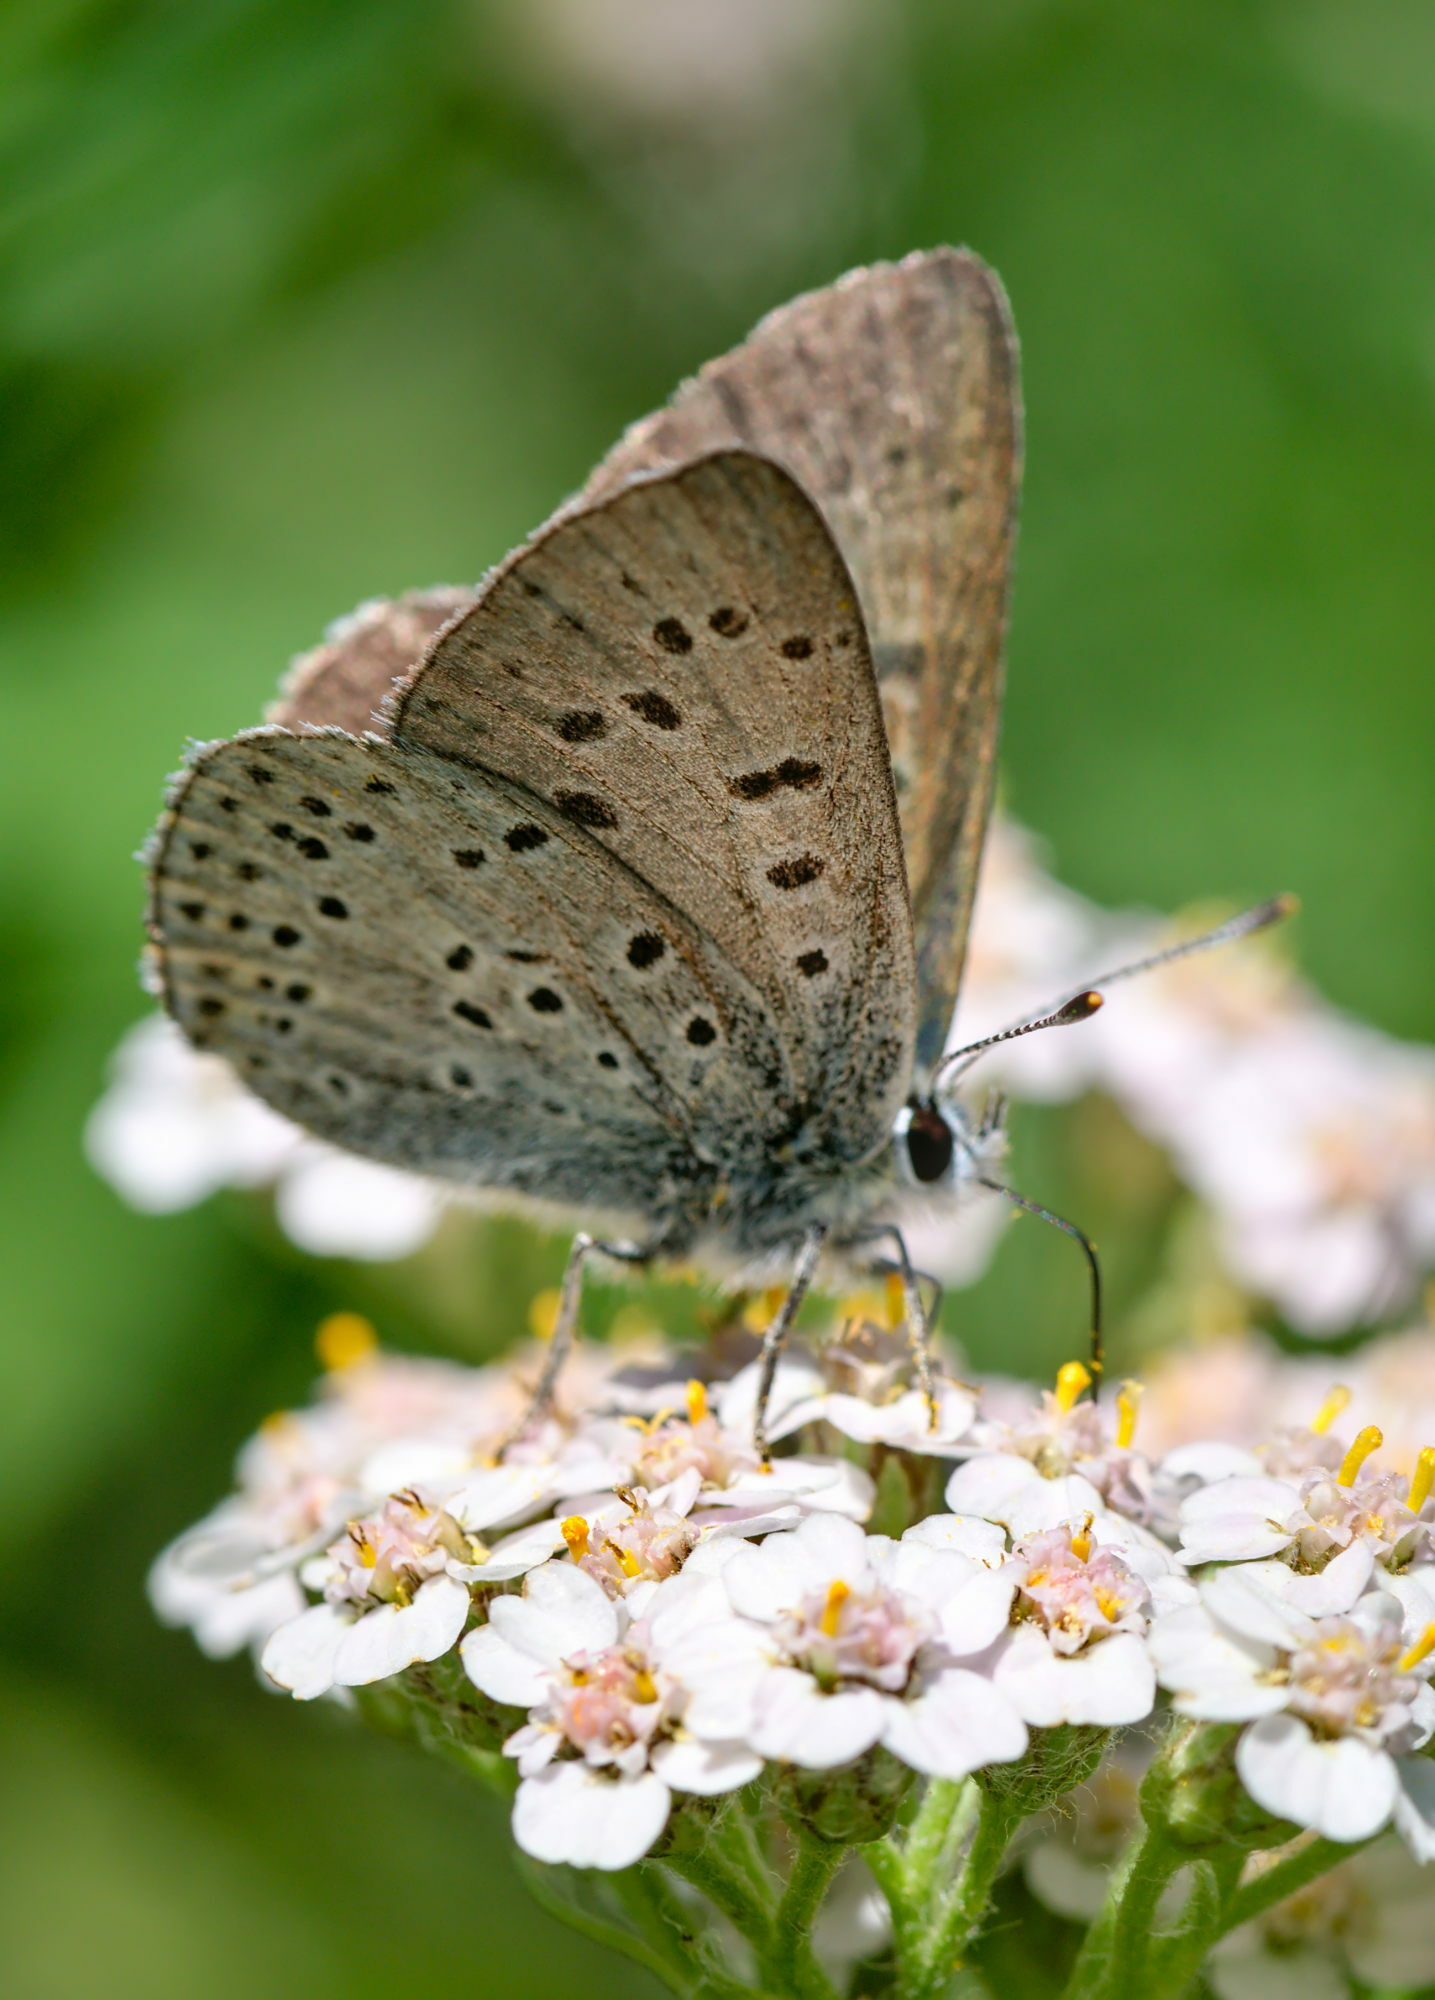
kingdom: Animalia
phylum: Arthropoda
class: Insecta
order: Lepidoptera
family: Lycaenidae
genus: Loweia
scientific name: Loweia tityrus
